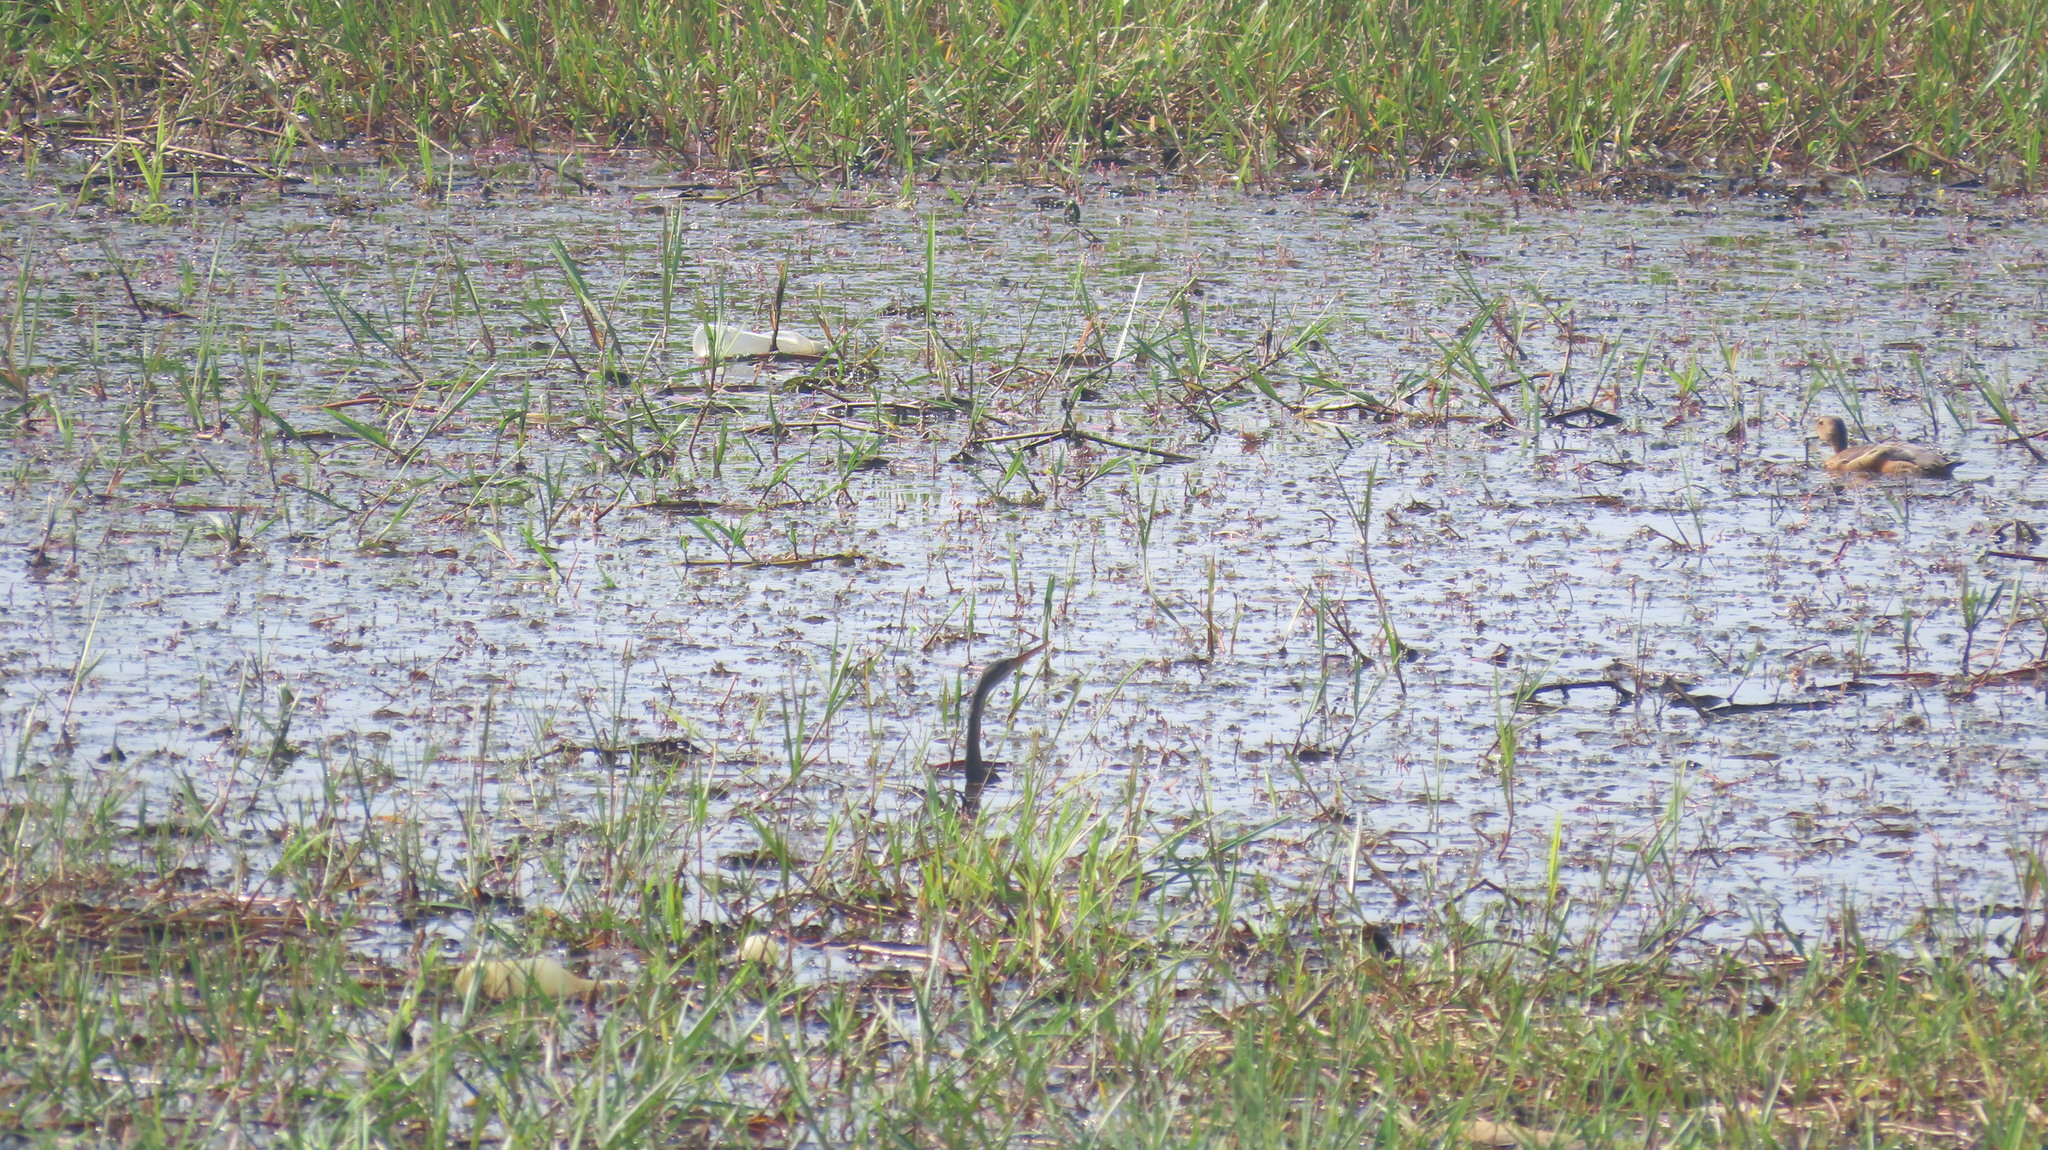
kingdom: Animalia
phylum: Chordata
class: Aves
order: Suliformes
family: Anhingidae
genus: Anhinga
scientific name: Anhinga melanogaster
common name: Oriental darter
